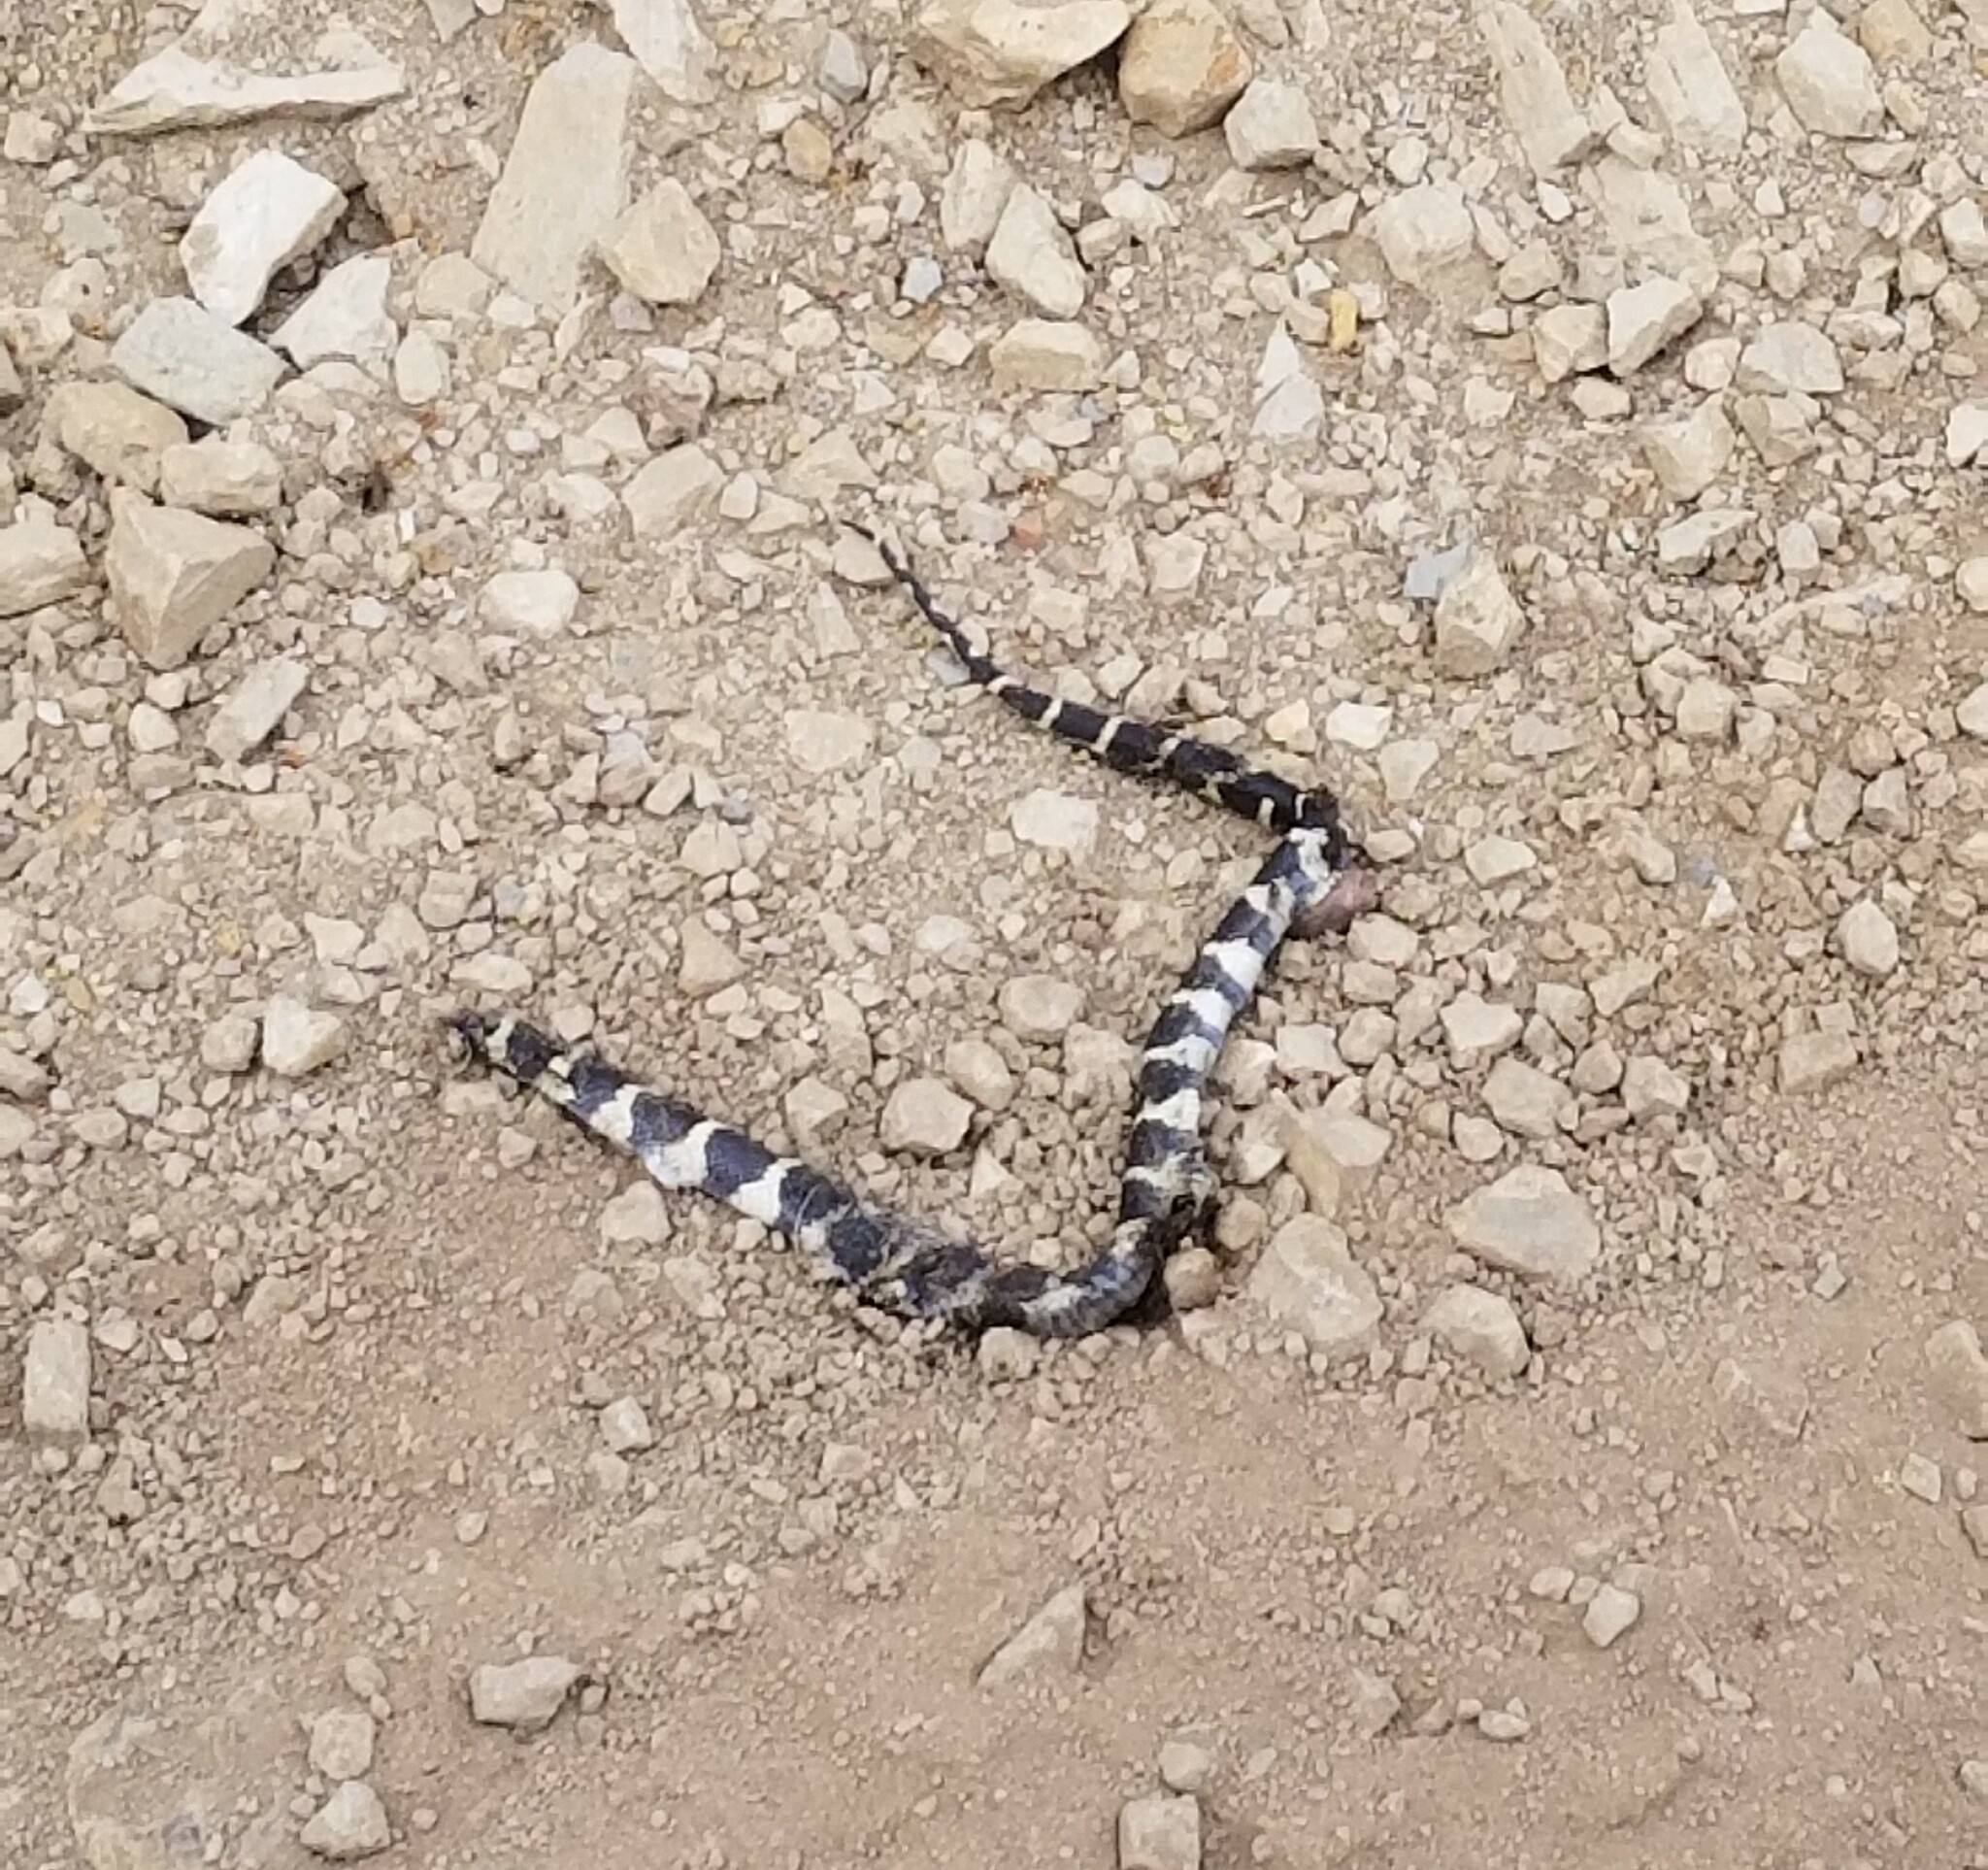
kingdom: Animalia
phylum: Chordata
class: Squamata
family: Colubridae
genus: Lampropeltis
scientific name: Lampropeltis californiae
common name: California kingsnake
